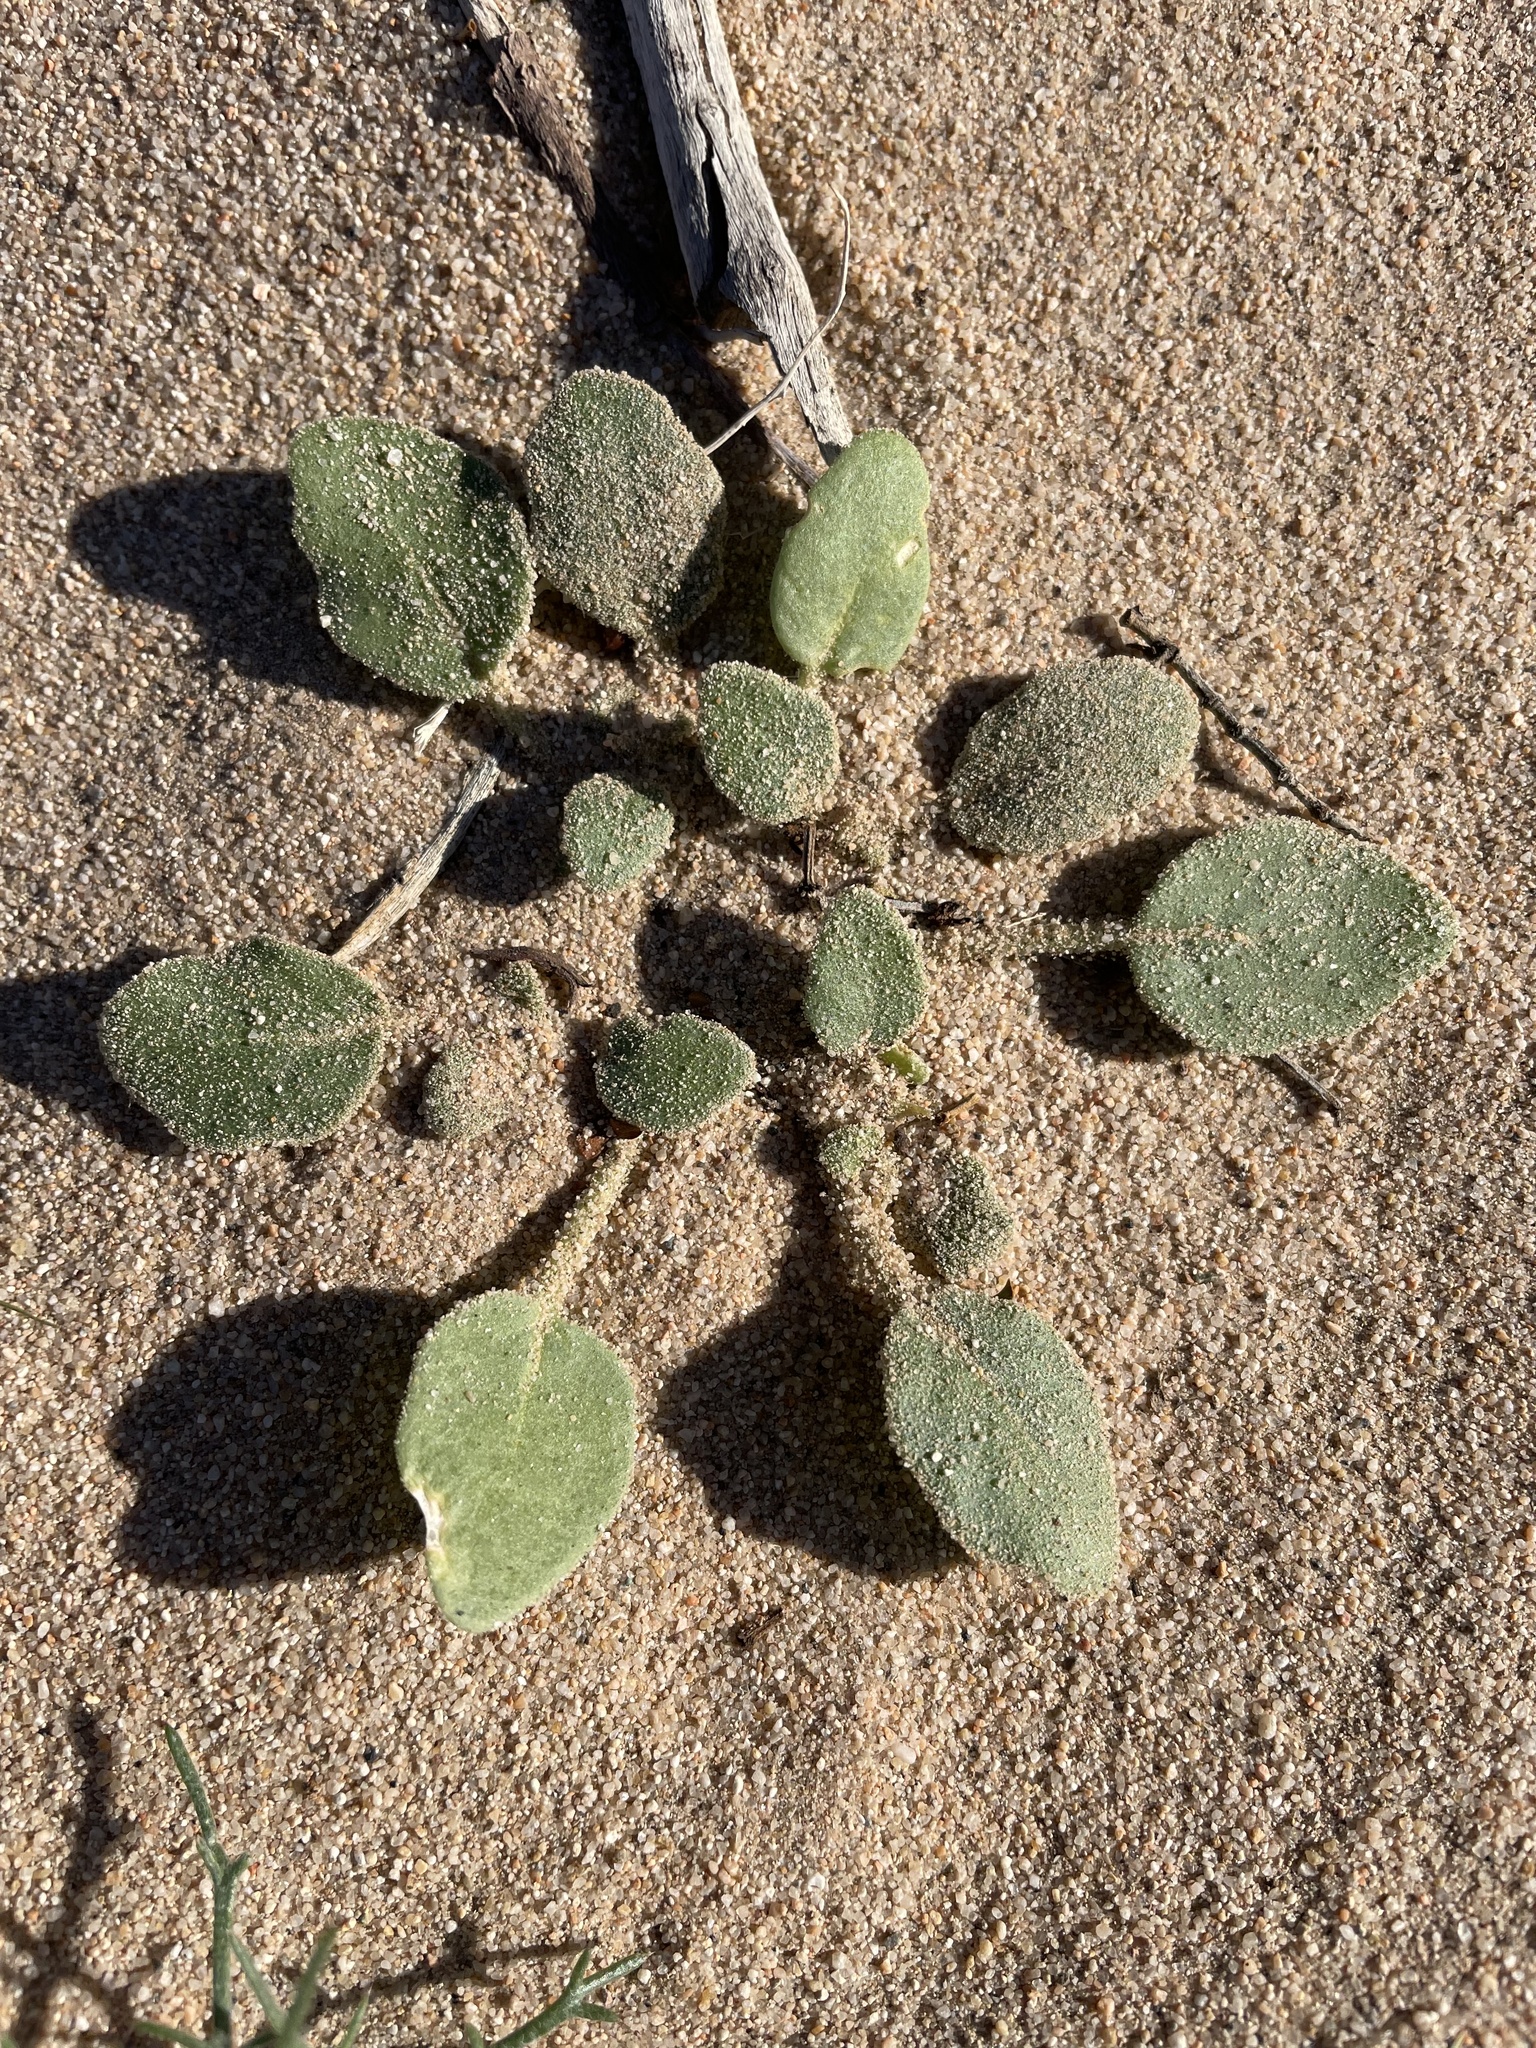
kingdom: Plantae
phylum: Tracheophyta
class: Magnoliopsida
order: Caryophyllales
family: Nyctaginaceae
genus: Abronia
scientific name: Abronia villosa
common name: Desert sand-verbena
